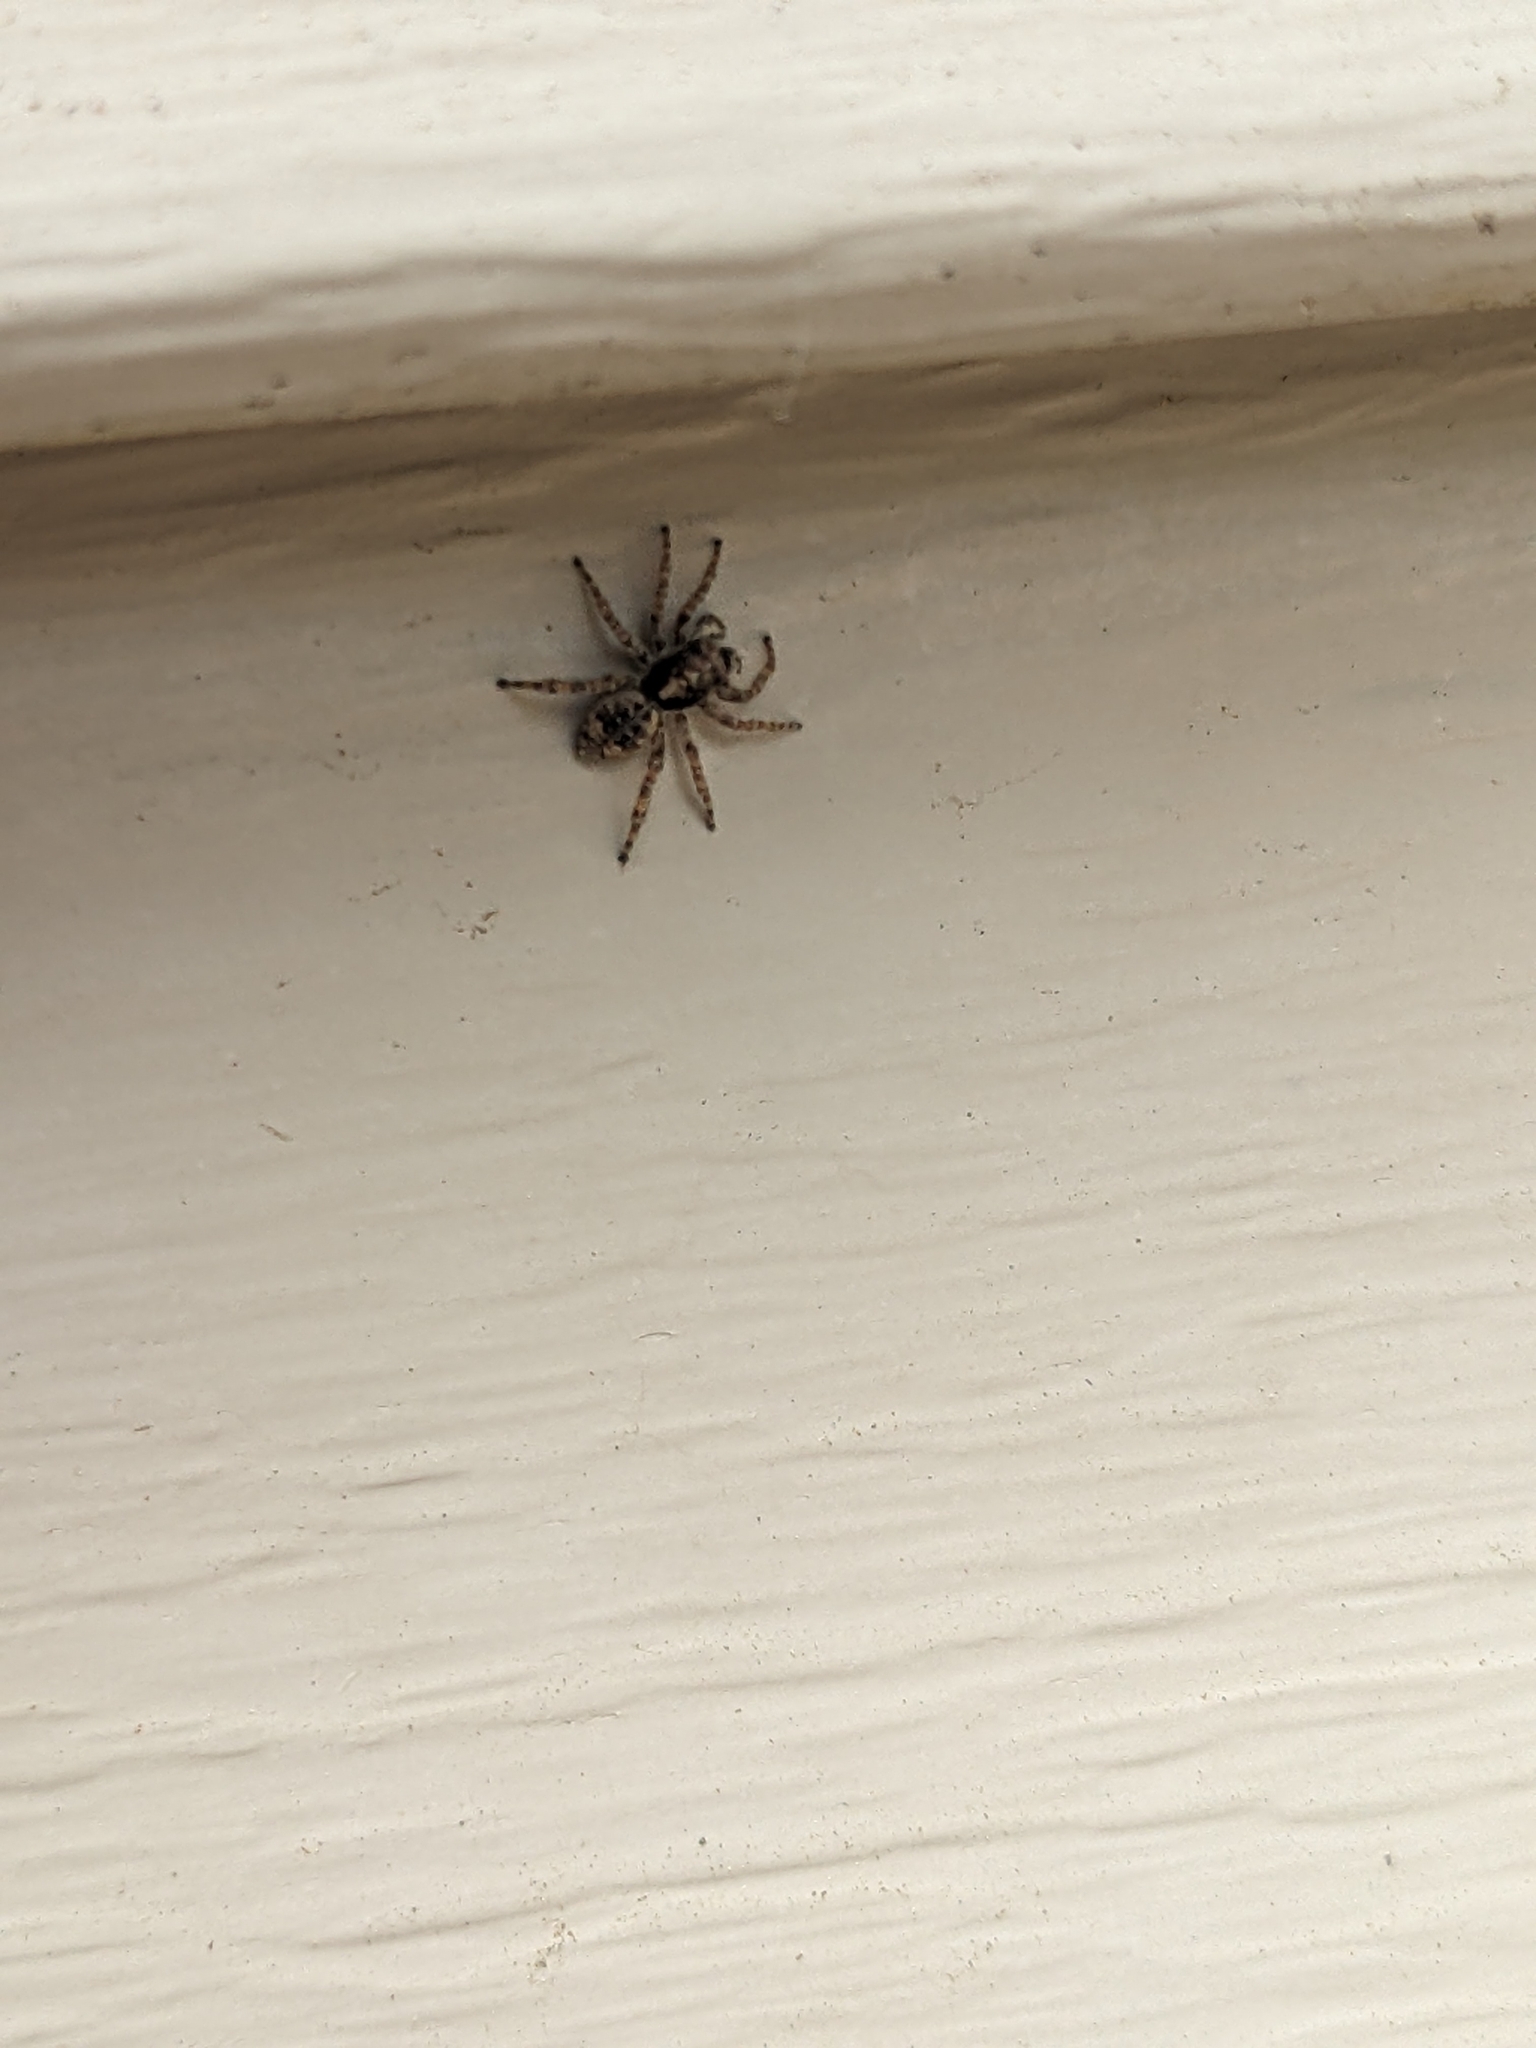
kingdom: Animalia
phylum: Arthropoda
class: Arachnida
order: Araneae
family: Salticidae
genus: Attulus
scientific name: Attulus fasciger
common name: Asiatic wall jumping spider
